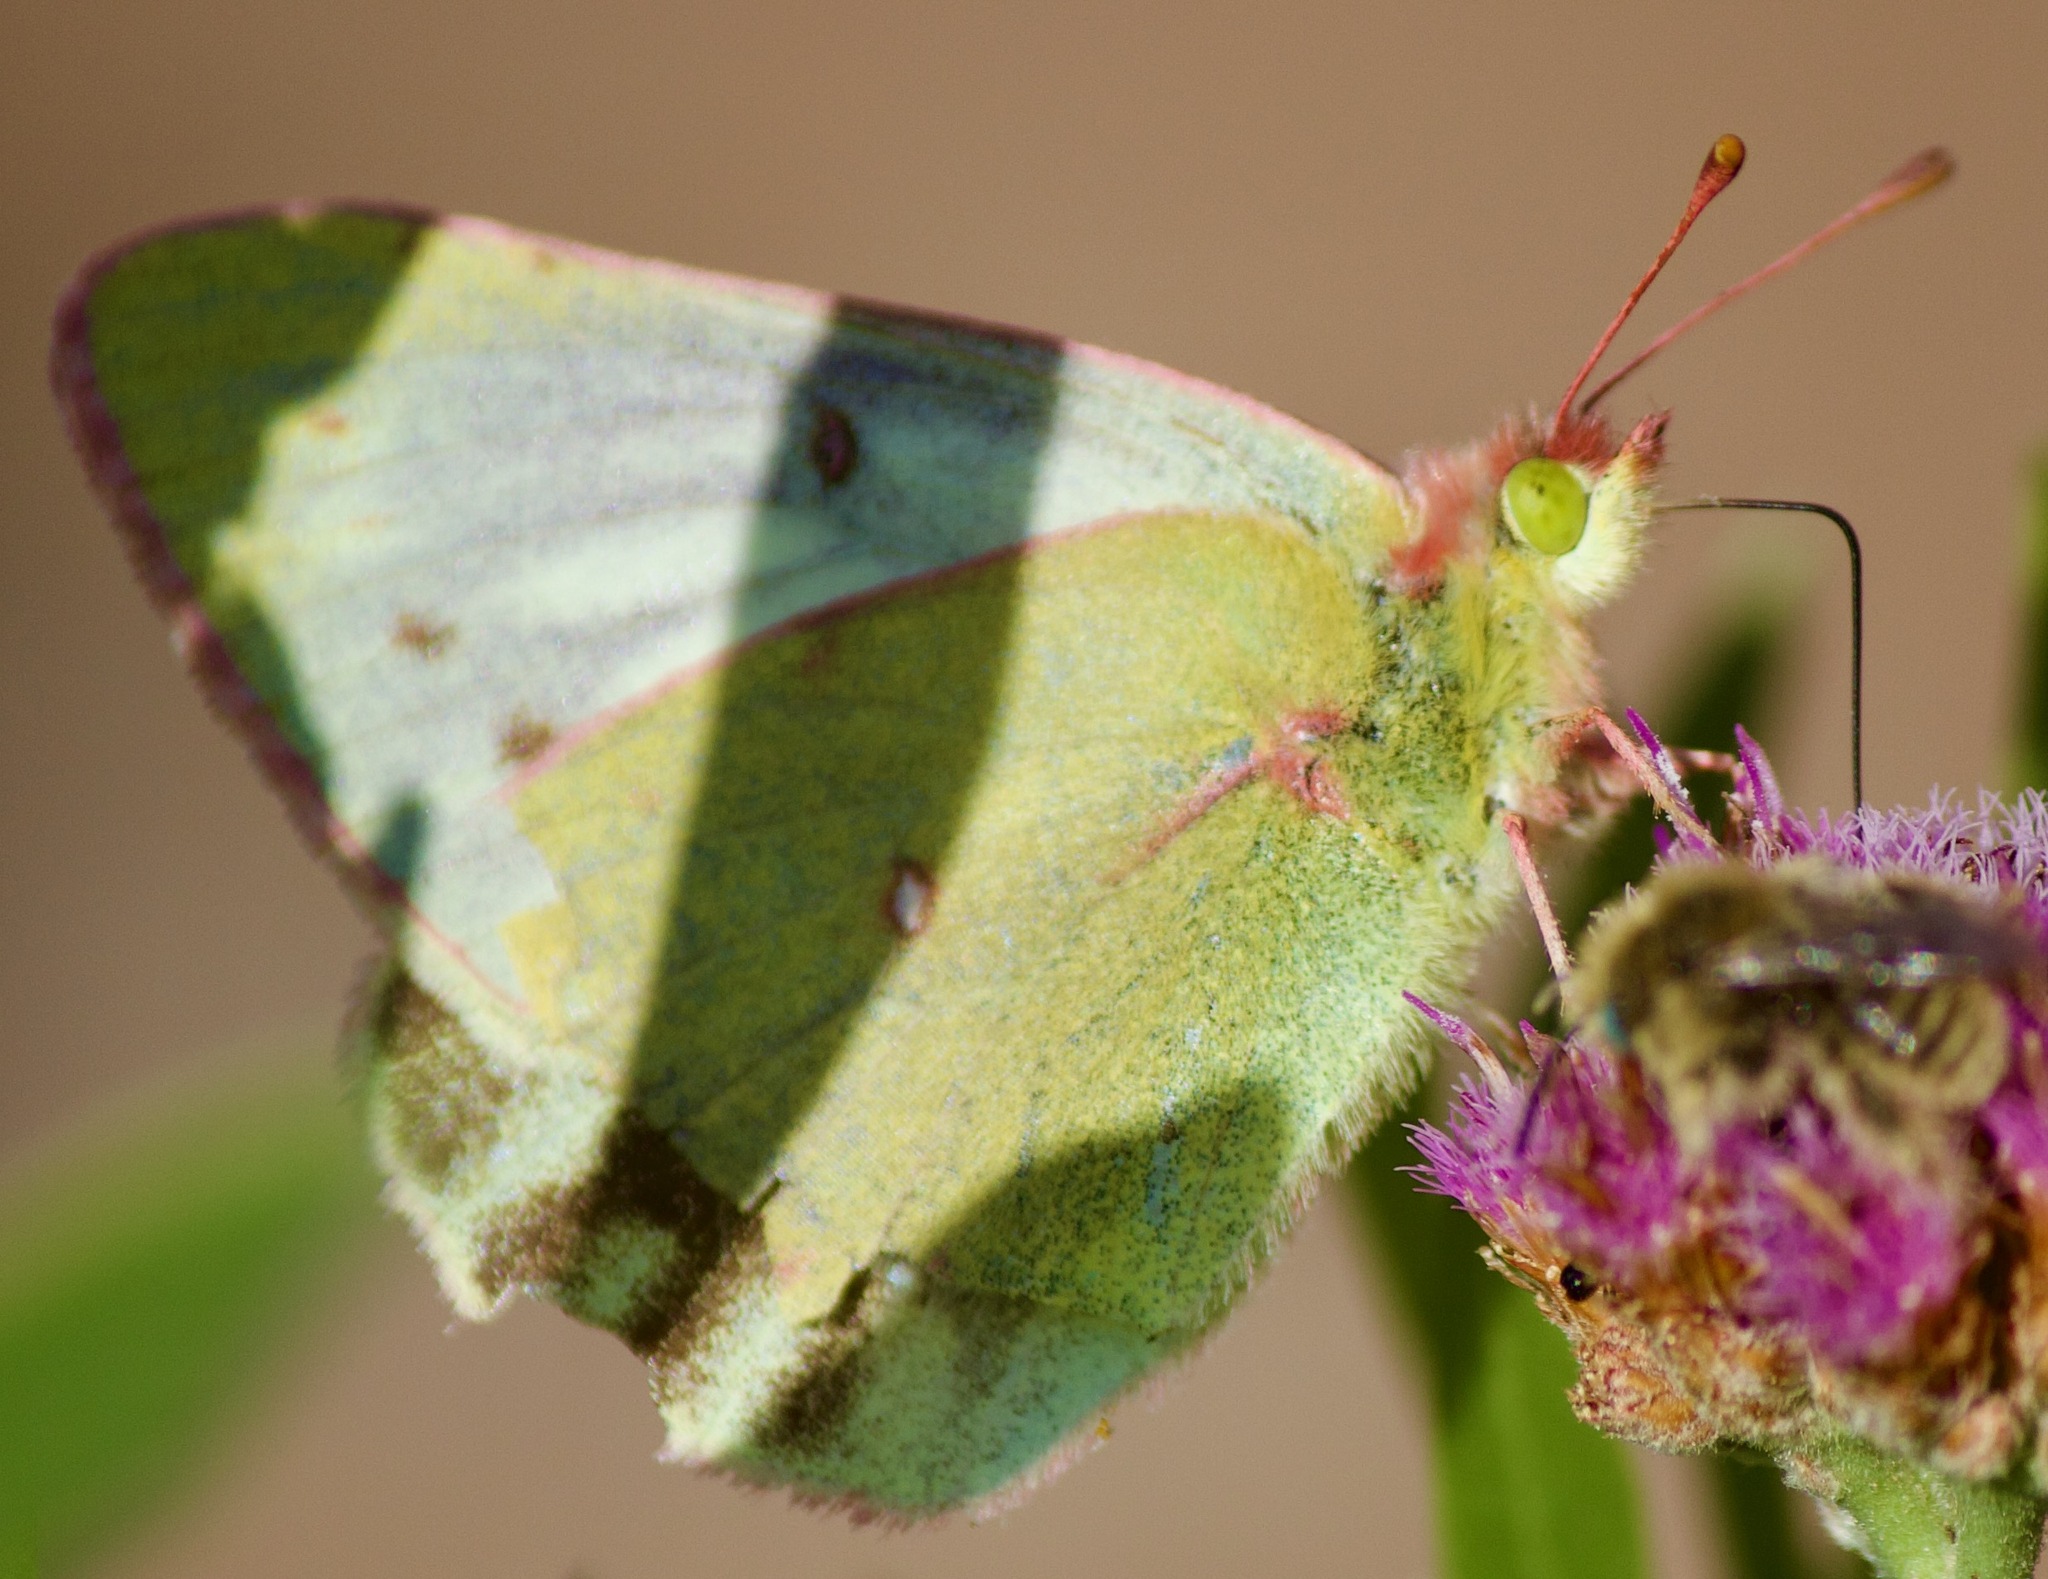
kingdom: Animalia
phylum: Arthropoda
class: Insecta
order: Lepidoptera
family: Pieridae
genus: Colias
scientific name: Colias vauthierii
